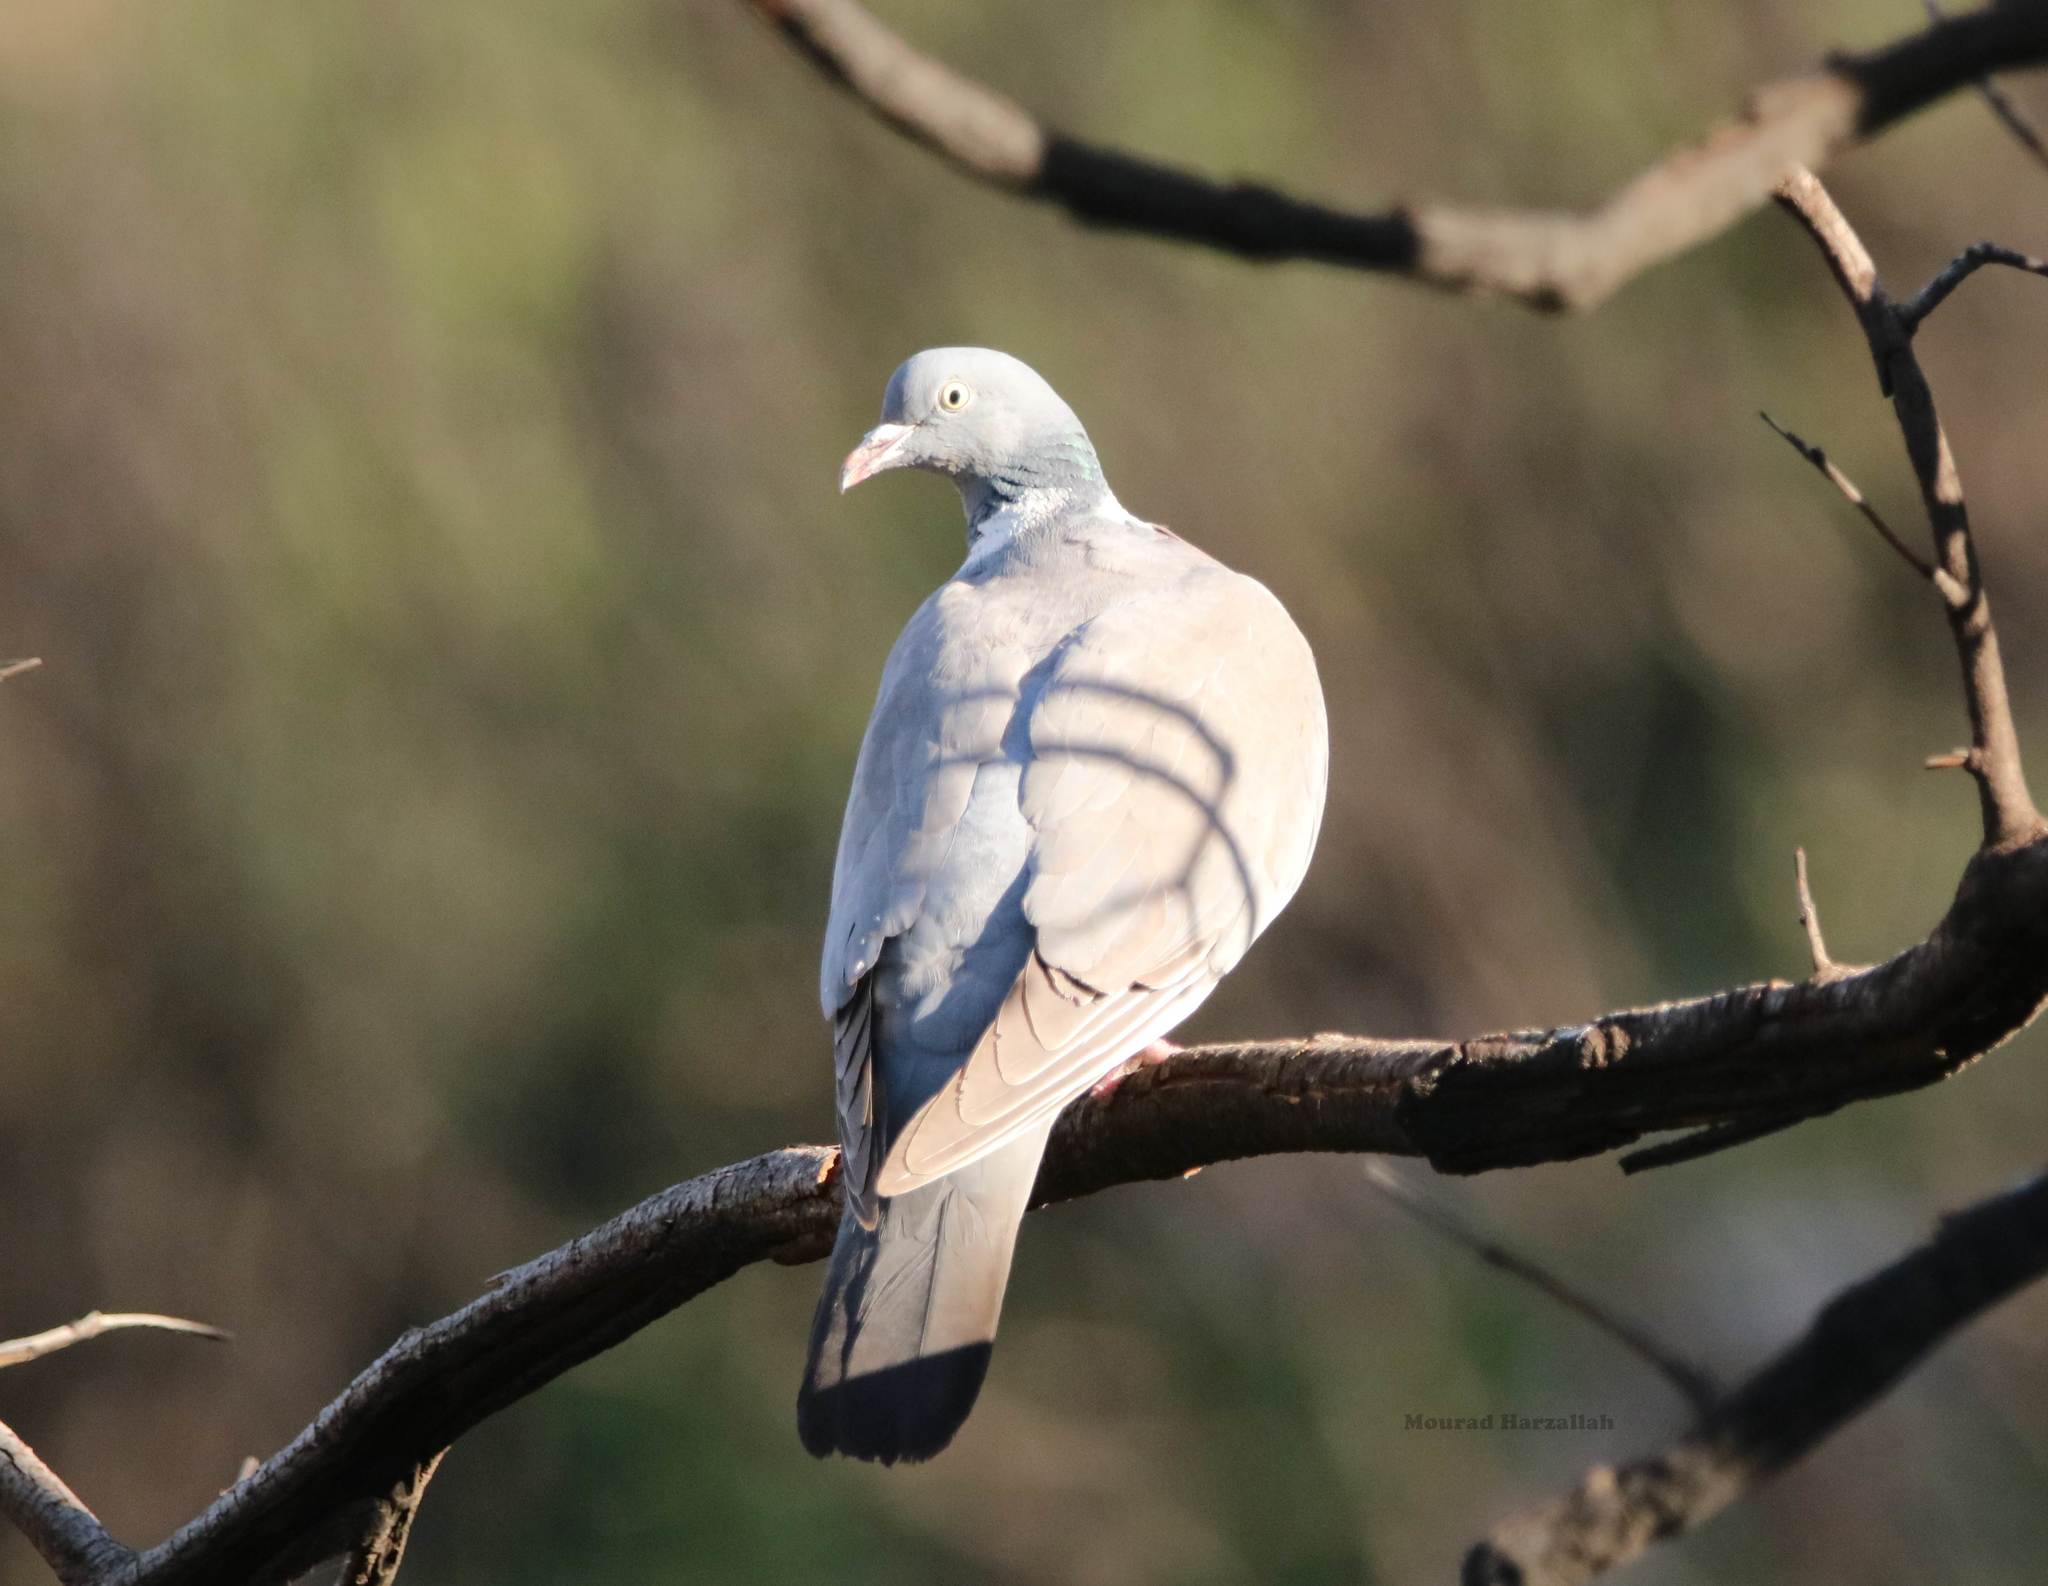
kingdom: Animalia
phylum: Chordata
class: Aves
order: Columbiformes
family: Columbidae
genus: Columba
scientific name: Columba palumbus
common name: Common wood pigeon
